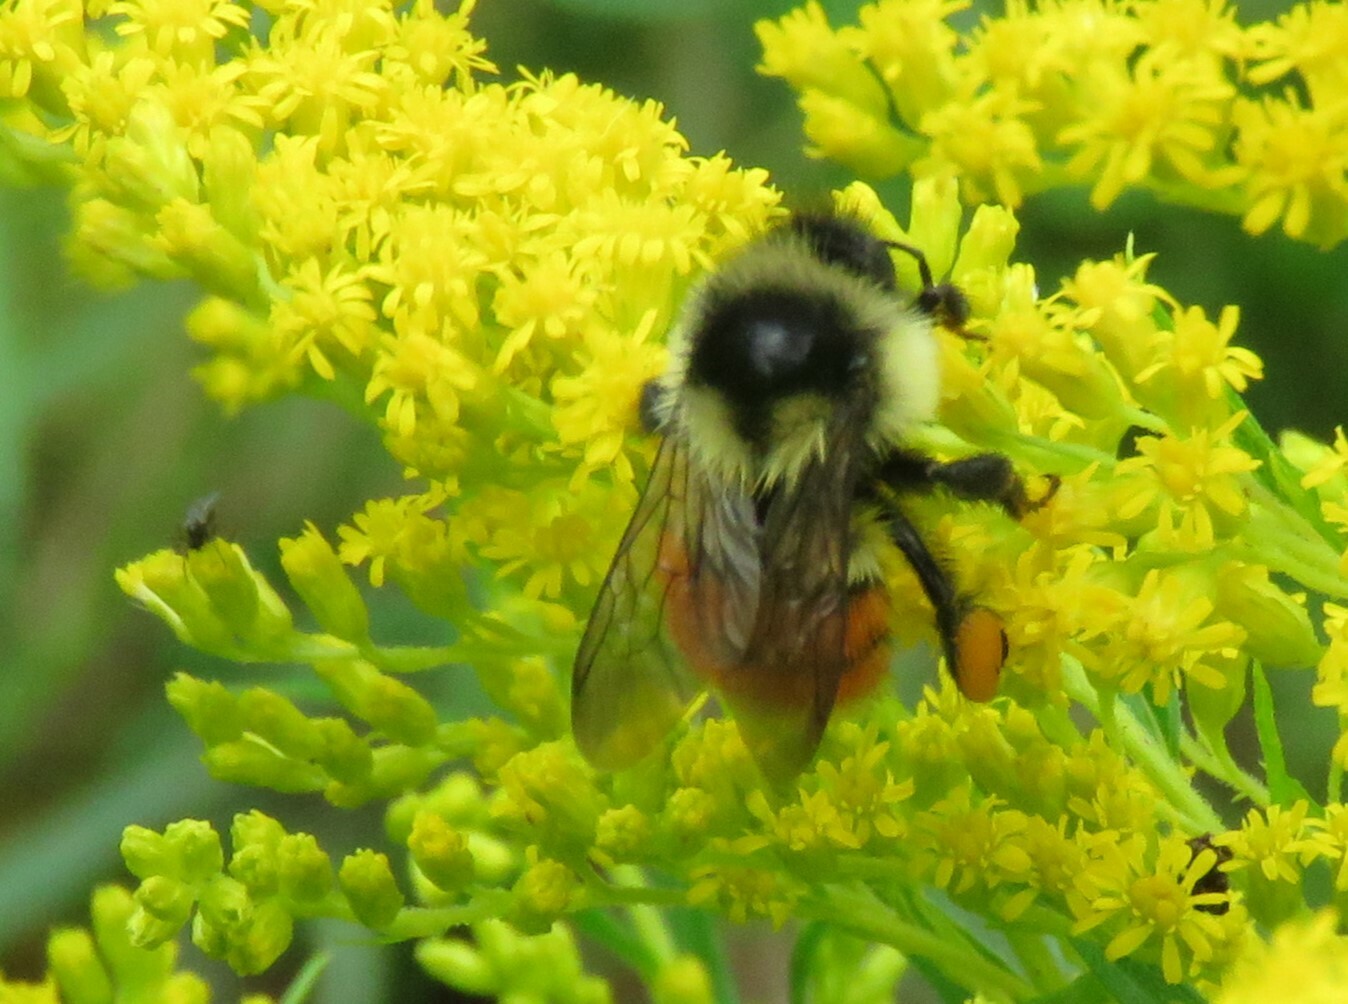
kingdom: Animalia
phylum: Arthropoda
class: Insecta
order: Hymenoptera
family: Apidae
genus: Bombus
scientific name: Bombus ternarius
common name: Tri-colored bumble bee
